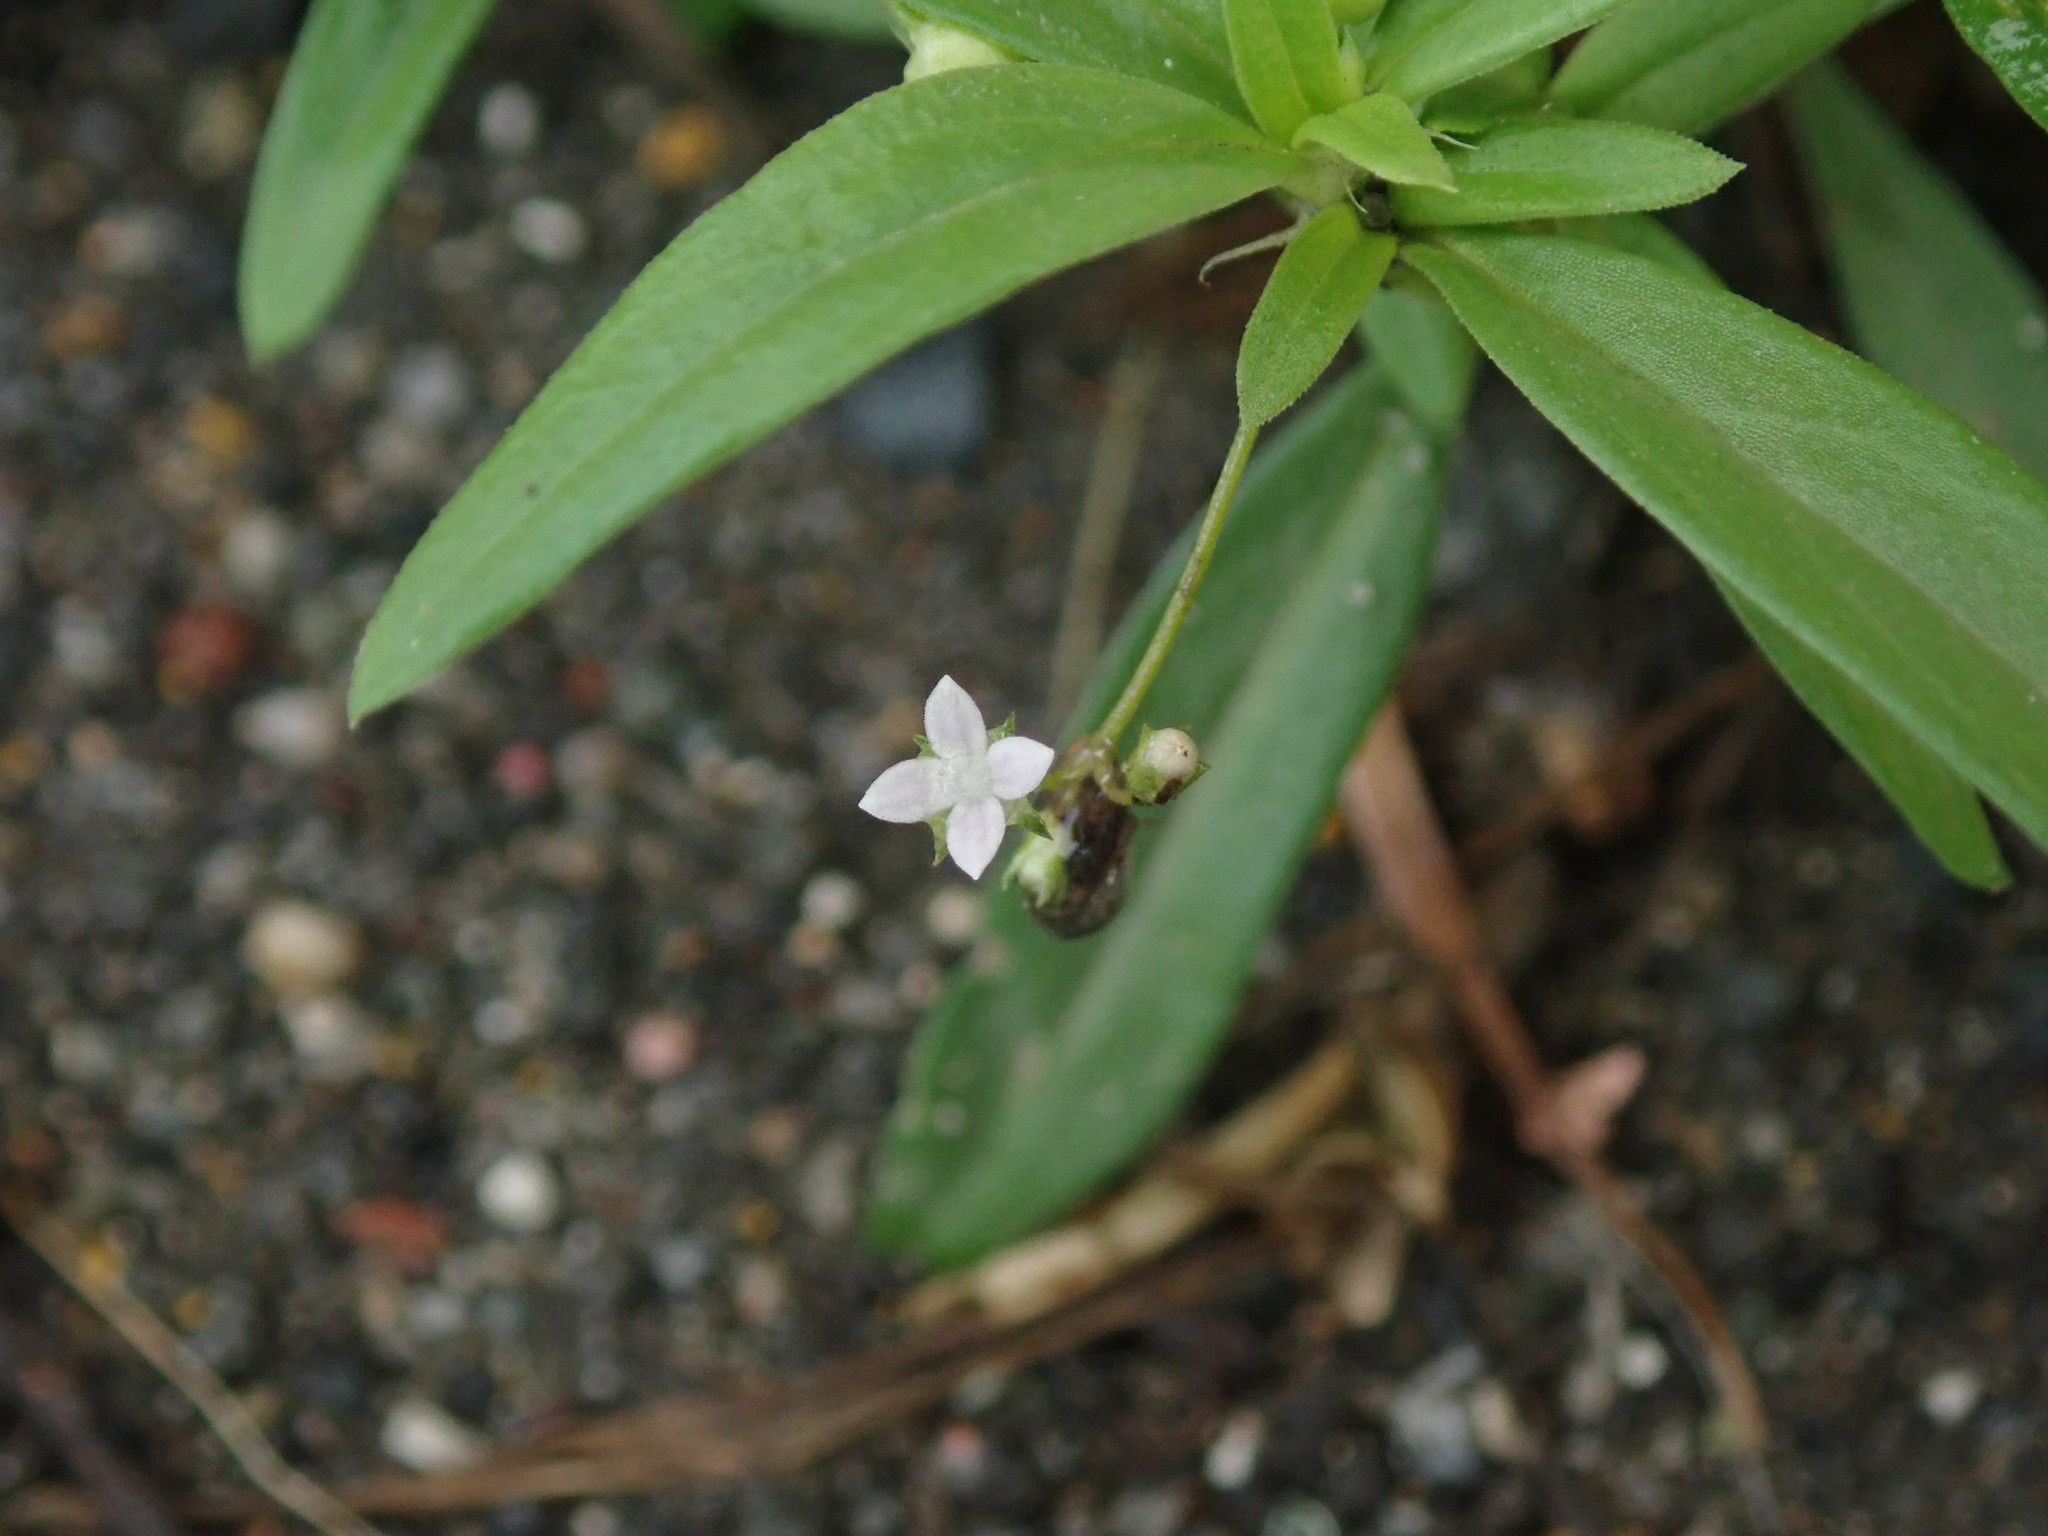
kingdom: Plantae
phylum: Tracheophyta
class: Magnoliopsida
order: Gentianales
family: Rubiaceae
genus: Oldenlandia
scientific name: Oldenlandia corymbosa
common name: Flat-top mille graines
